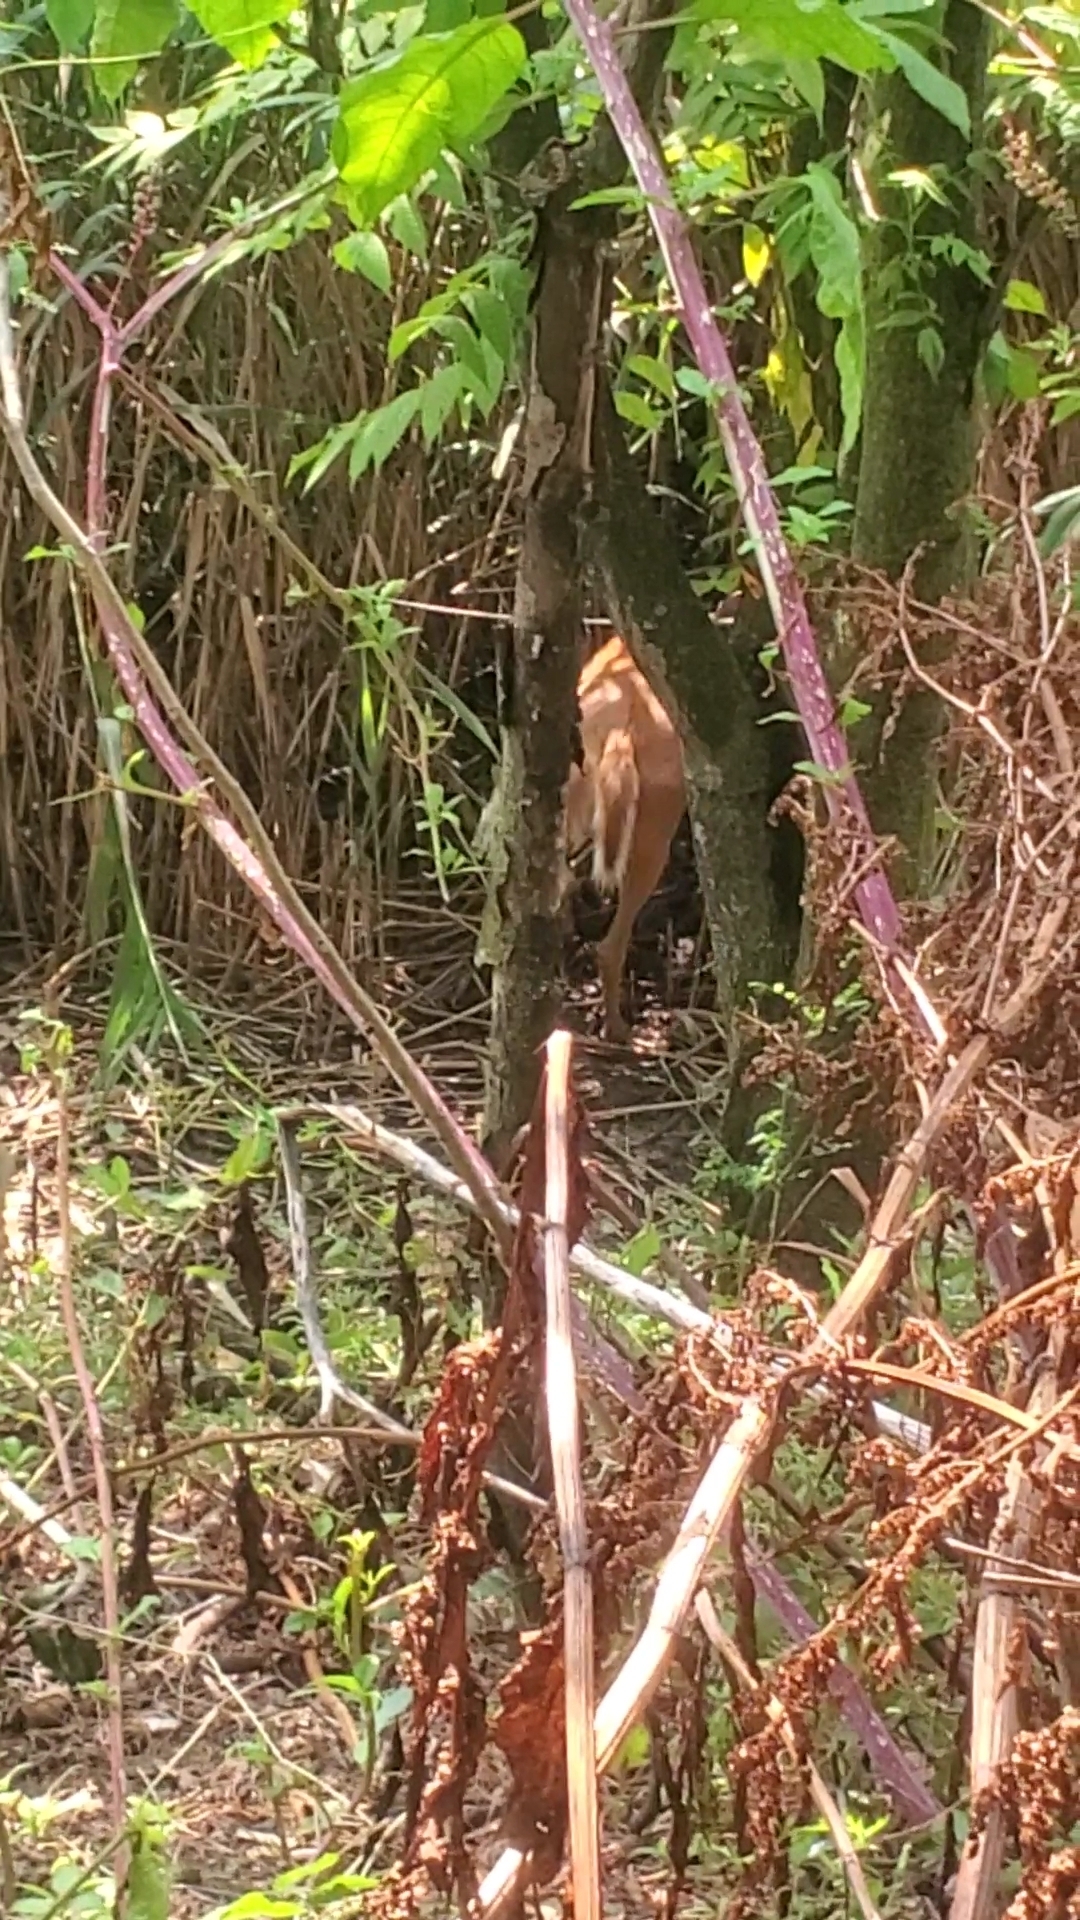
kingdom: Animalia
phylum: Chordata
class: Mammalia
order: Artiodactyla
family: Cervidae
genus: Odocoileus
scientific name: Odocoileus virginianus
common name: White-tailed deer
